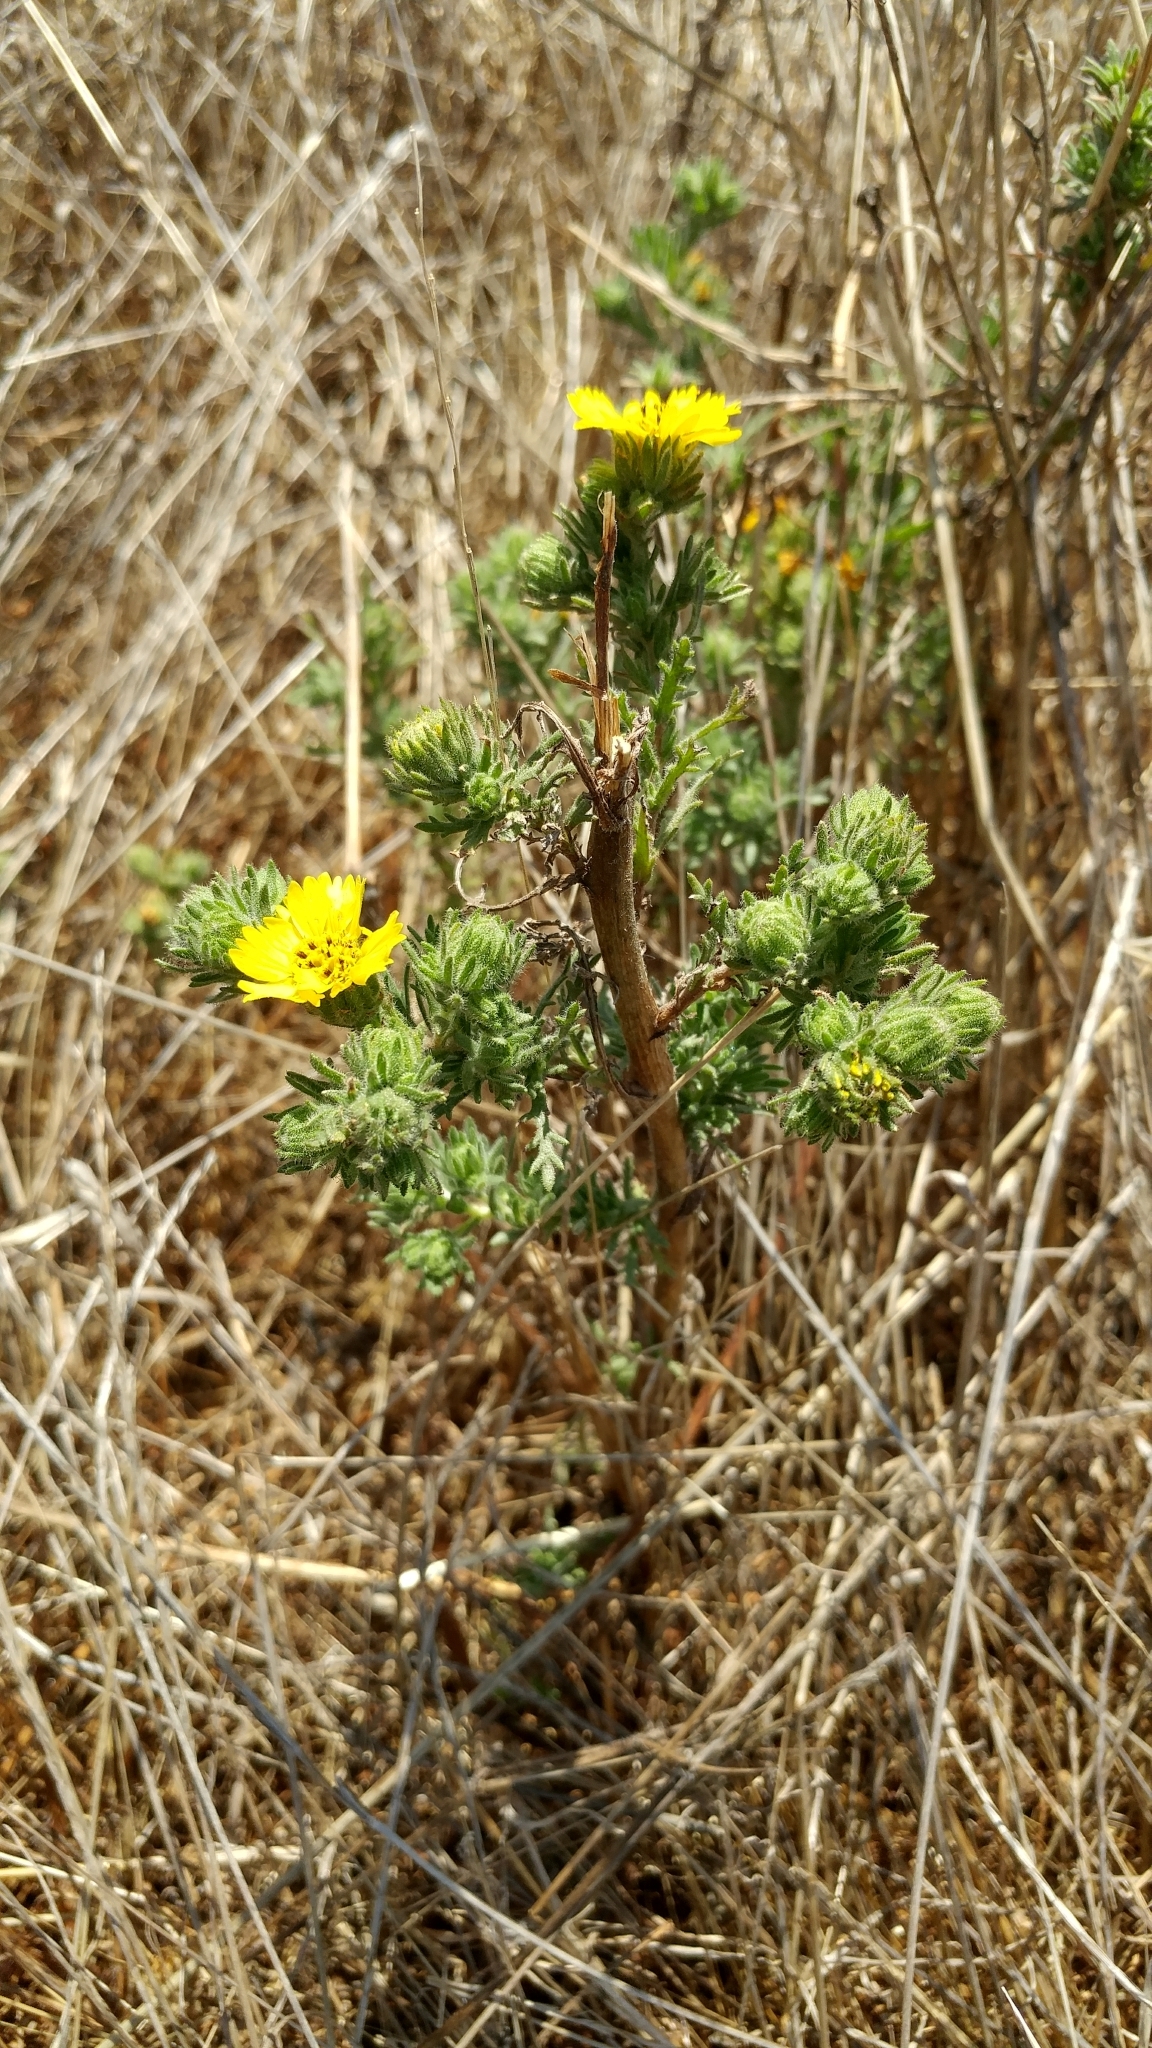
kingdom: Plantae
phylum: Tracheophyta
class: Magnoliopsida
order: Asterales
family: Asteraceae
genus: Deinandra
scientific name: Deinandra increscens
